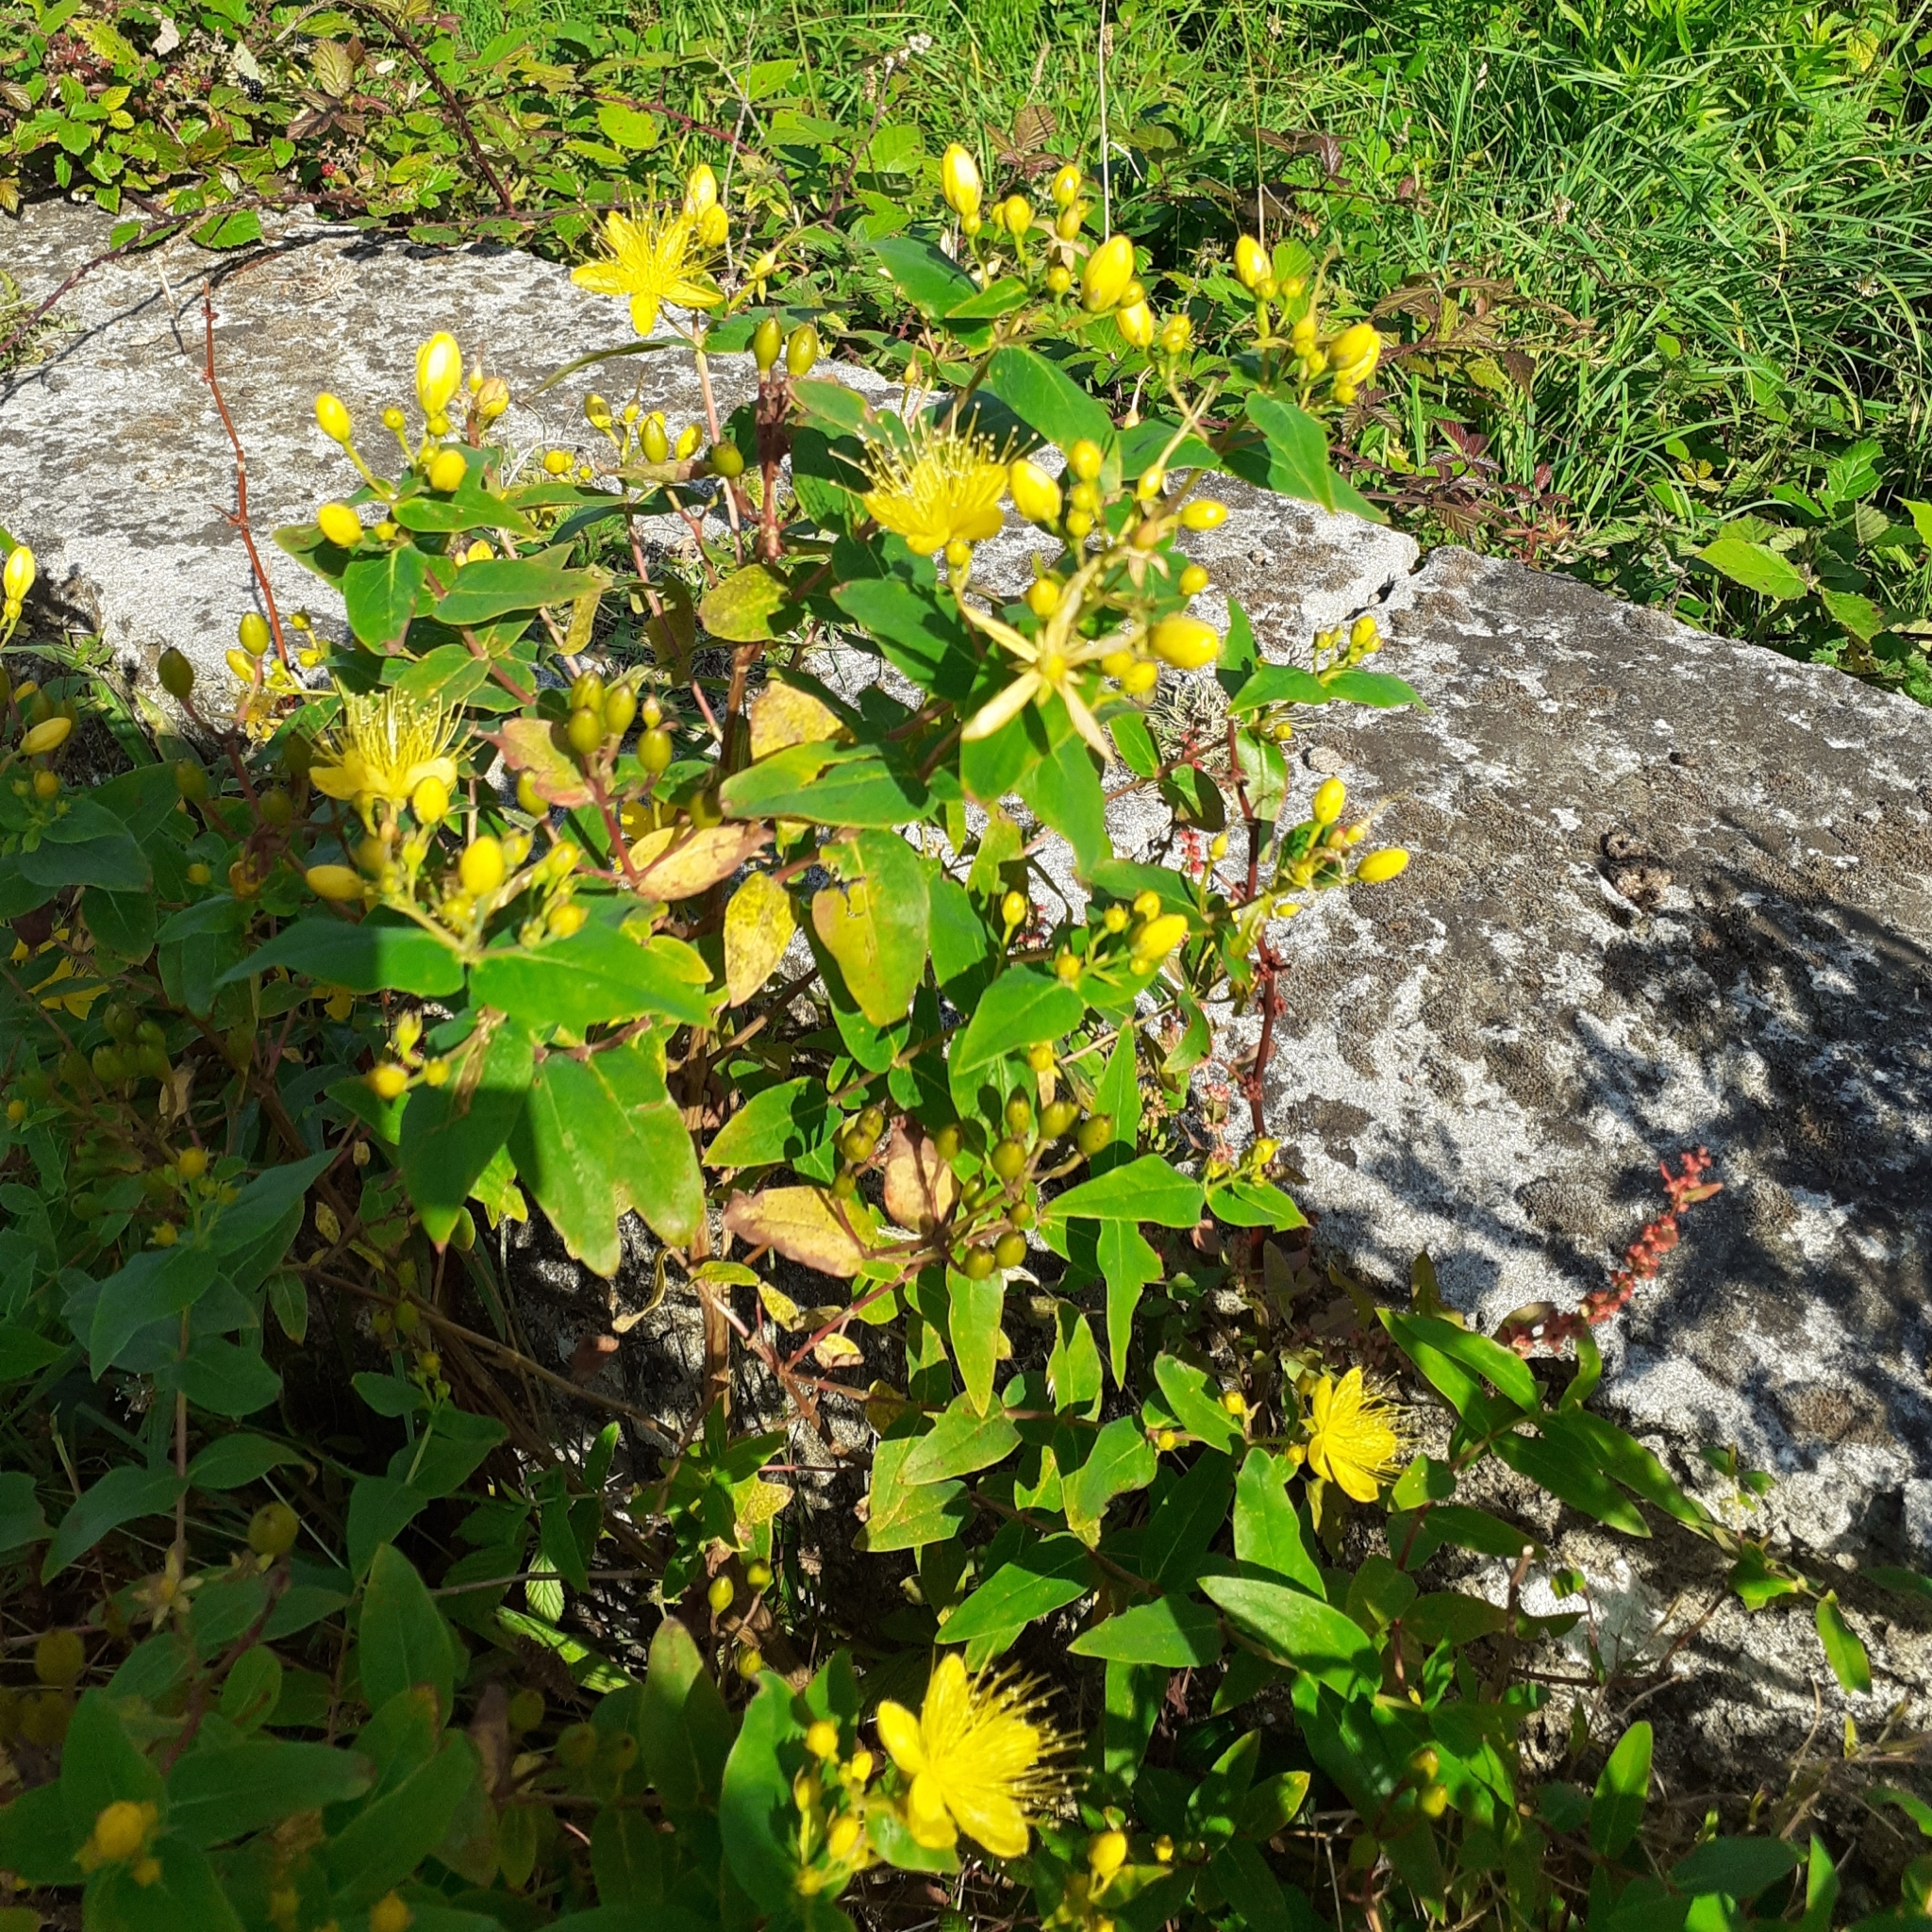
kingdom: Plantae
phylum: Tracheophyta
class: Magnoliopsida
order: Malpighiales
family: Hypericaceae
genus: Hypericum
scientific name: Hypericum calycinum
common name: Rose-of-sharon
